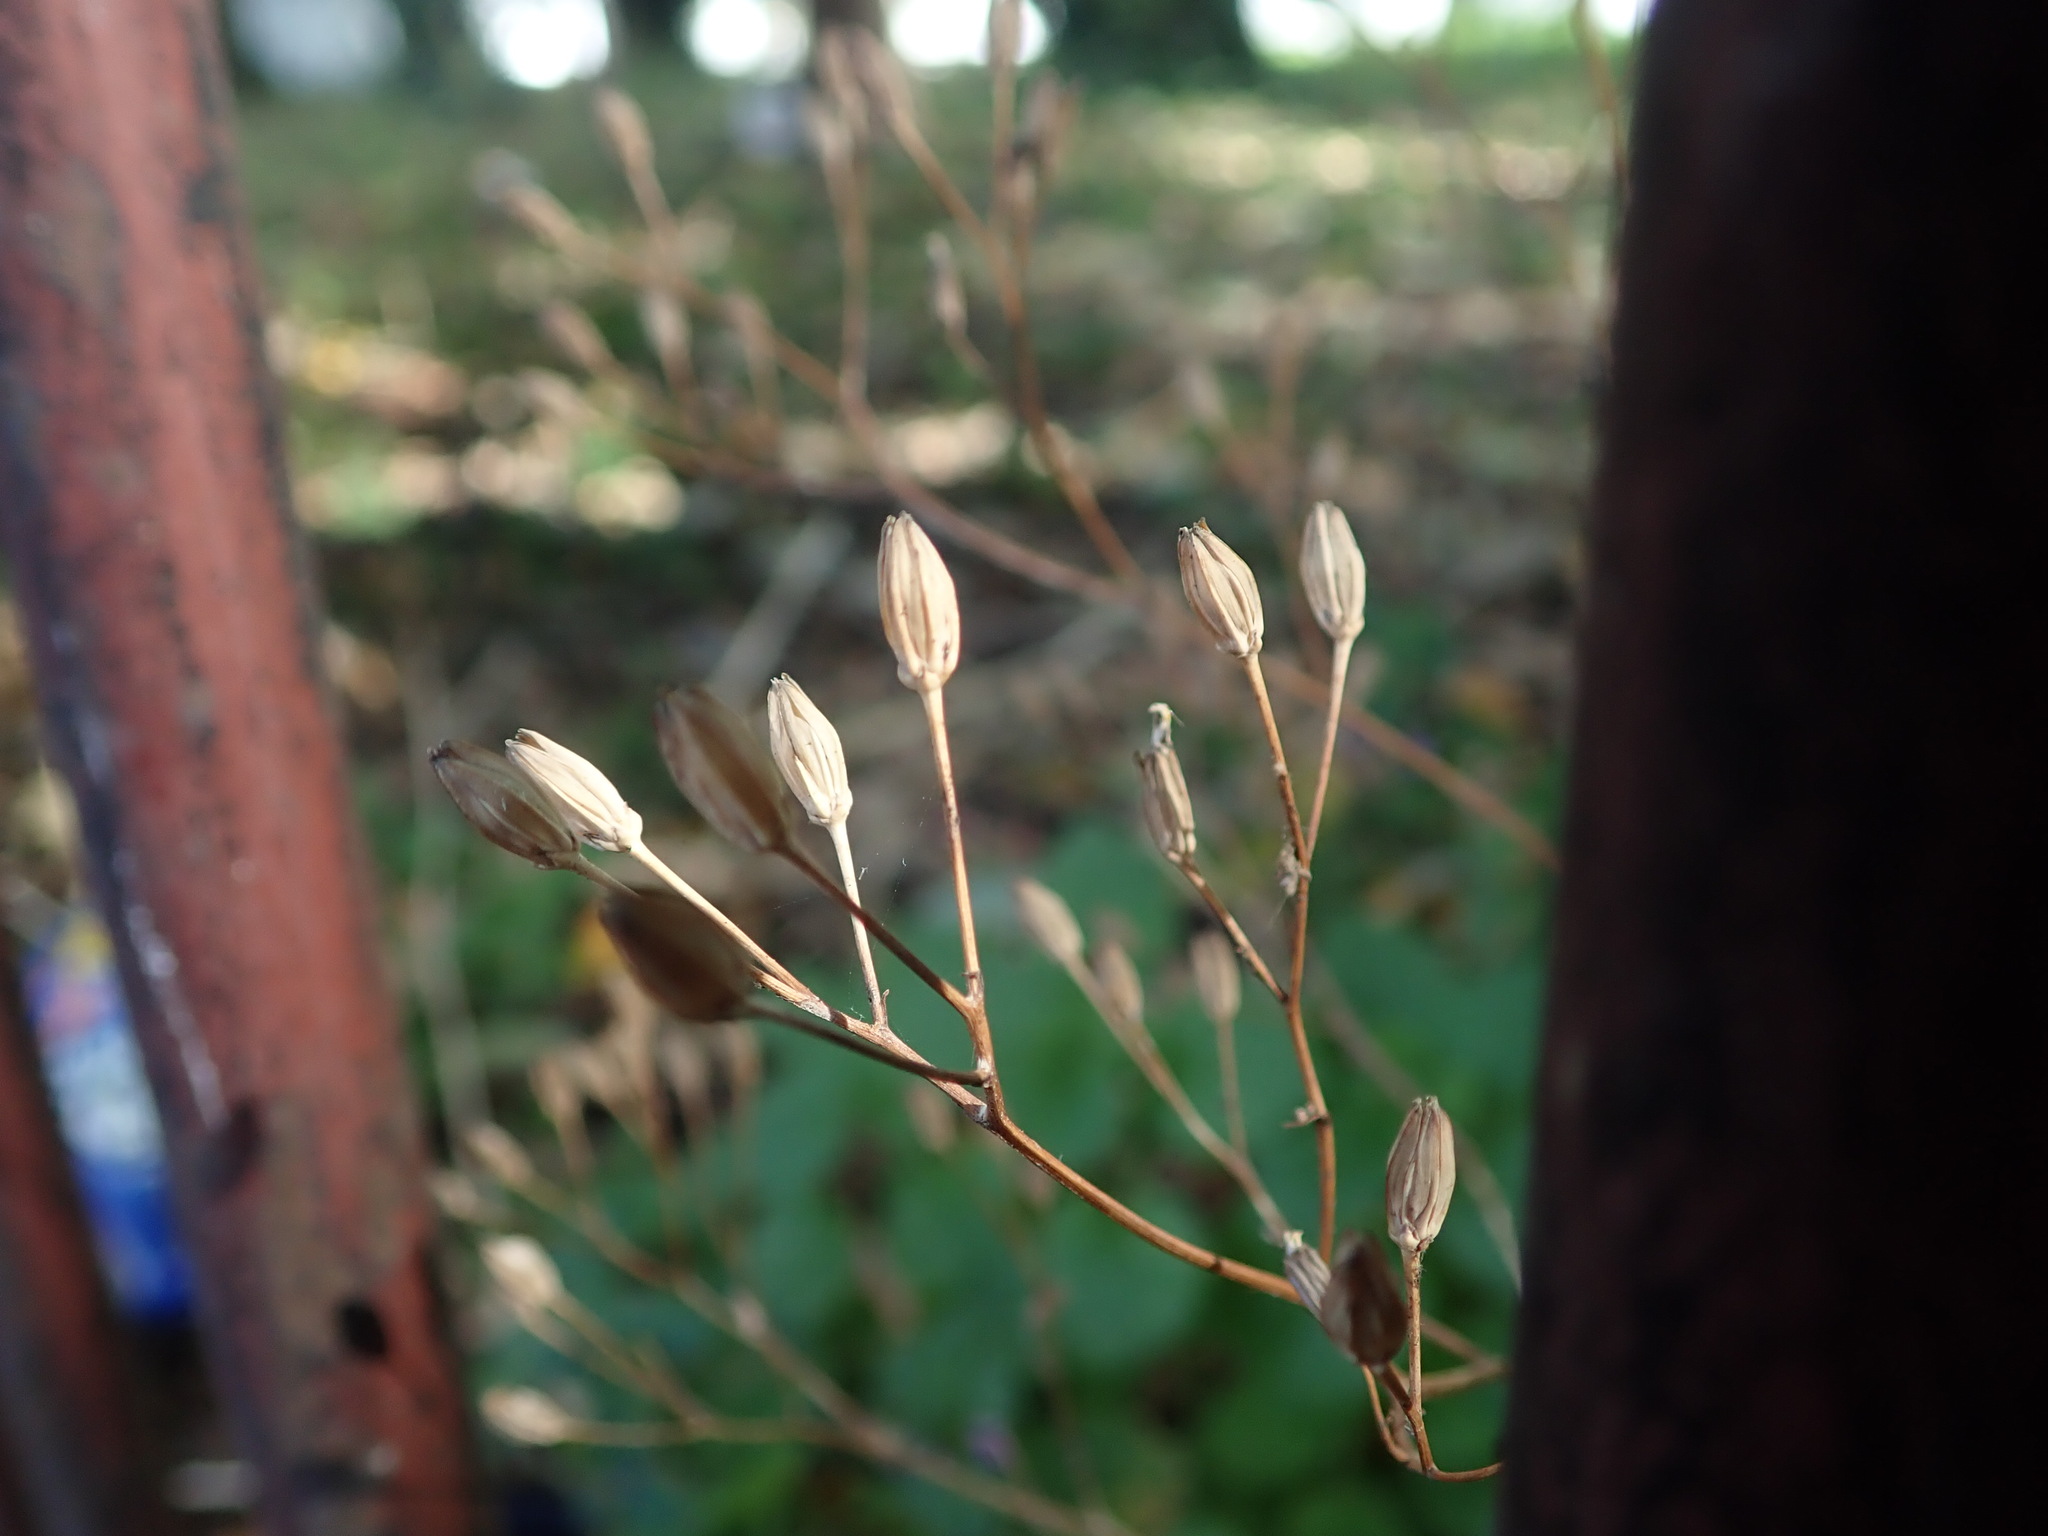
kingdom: Plantae
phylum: Tracheophyta
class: Magnoliopsida
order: Asterales
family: Asteraceae
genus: Lapsana
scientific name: Lapsana communis
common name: Nipplewort
